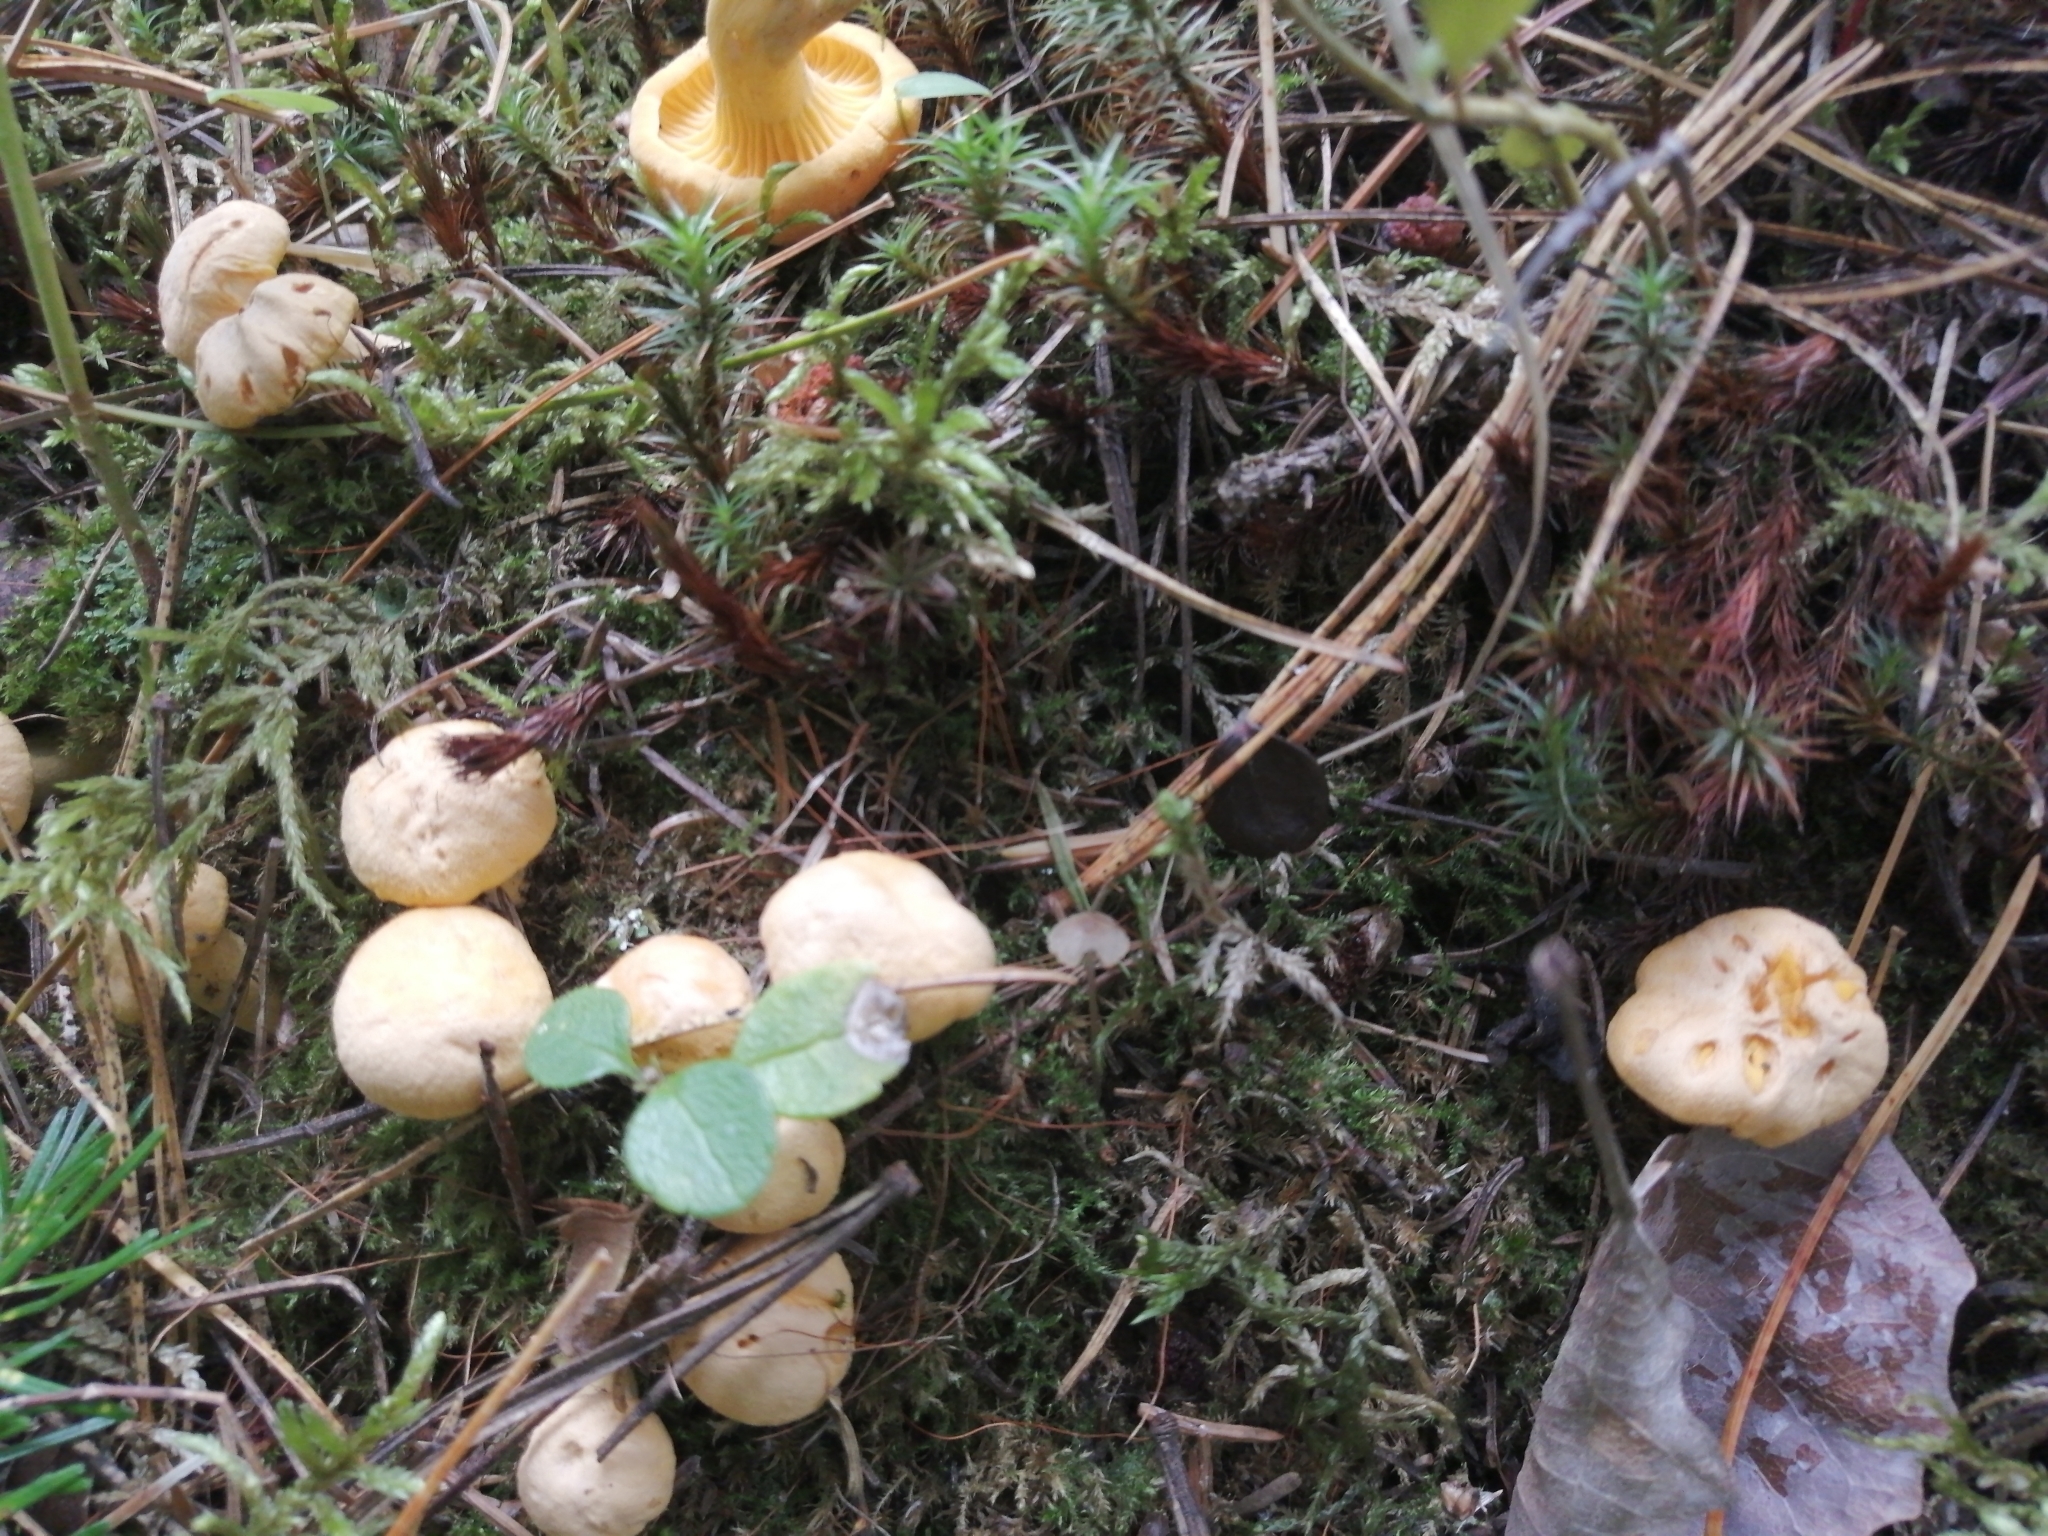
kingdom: Fungi
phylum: Basidiomycota
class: Agaricomycetes
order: Cantharellales
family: Hydnaceae
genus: Cantharellus
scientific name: Cantharellus cibarius
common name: Chanterelle
